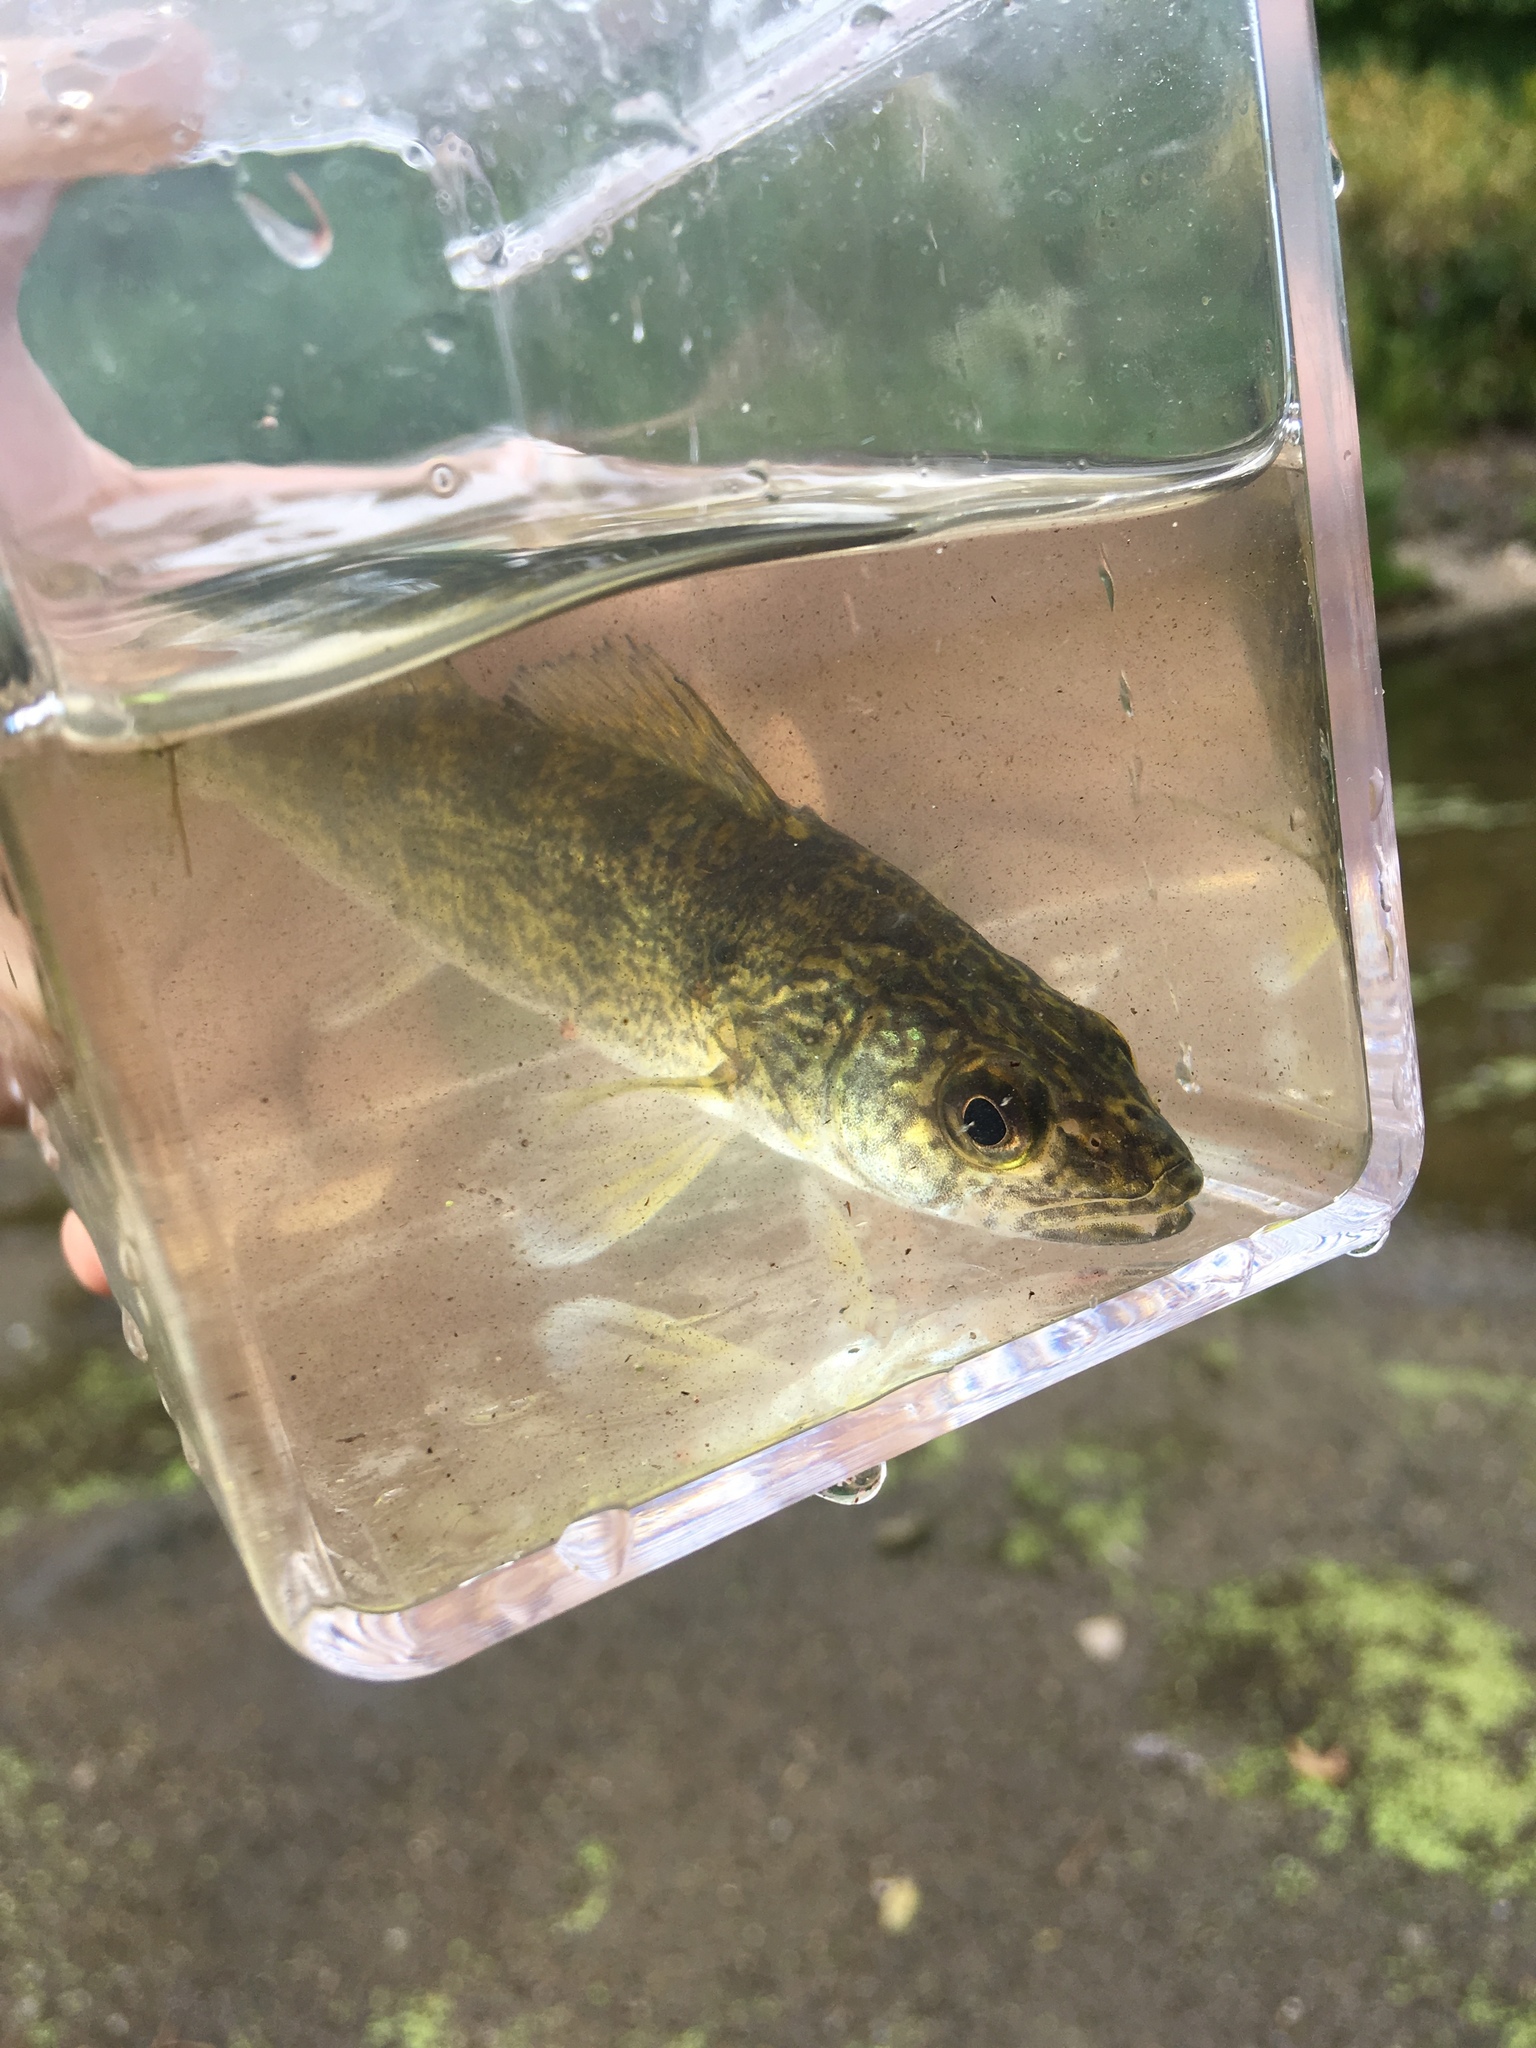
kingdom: Animalia
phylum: Chordata
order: Perciformes
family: Percidae
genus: Sander
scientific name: Sander vitreus
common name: Walleye
